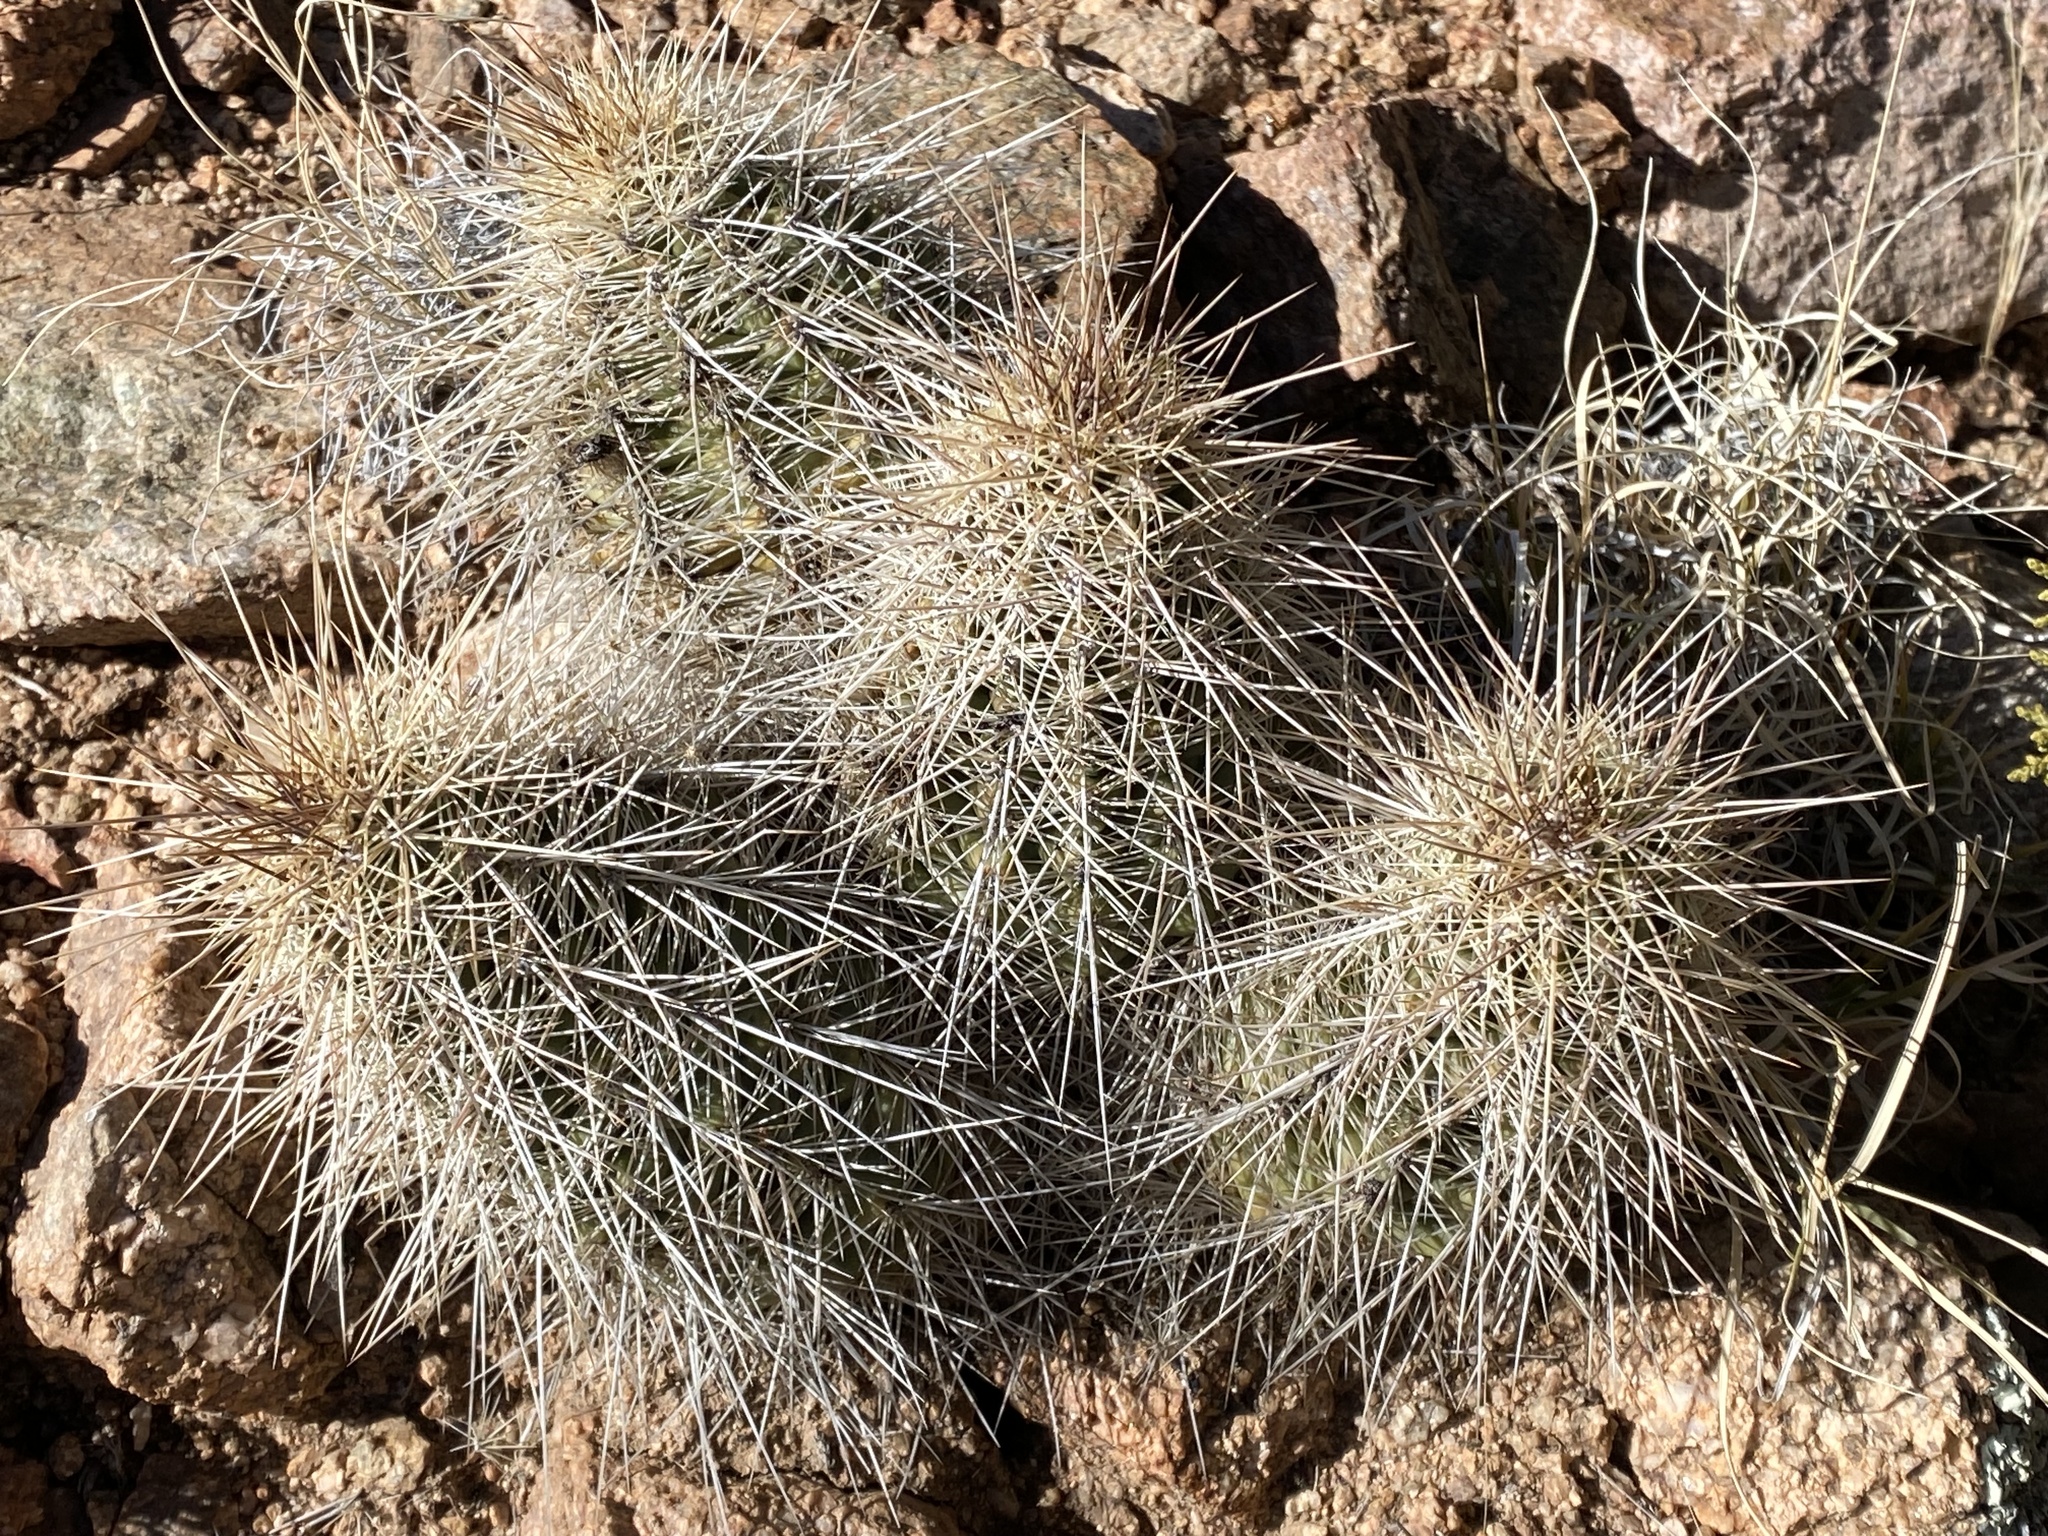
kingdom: Plantae
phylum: Tracheophyta
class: Magnoliopsida
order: Caryophyllales
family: Cactaceae
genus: Echinocereus
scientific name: Echinocereus coccineus
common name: Scarlet hedgehog cactus
